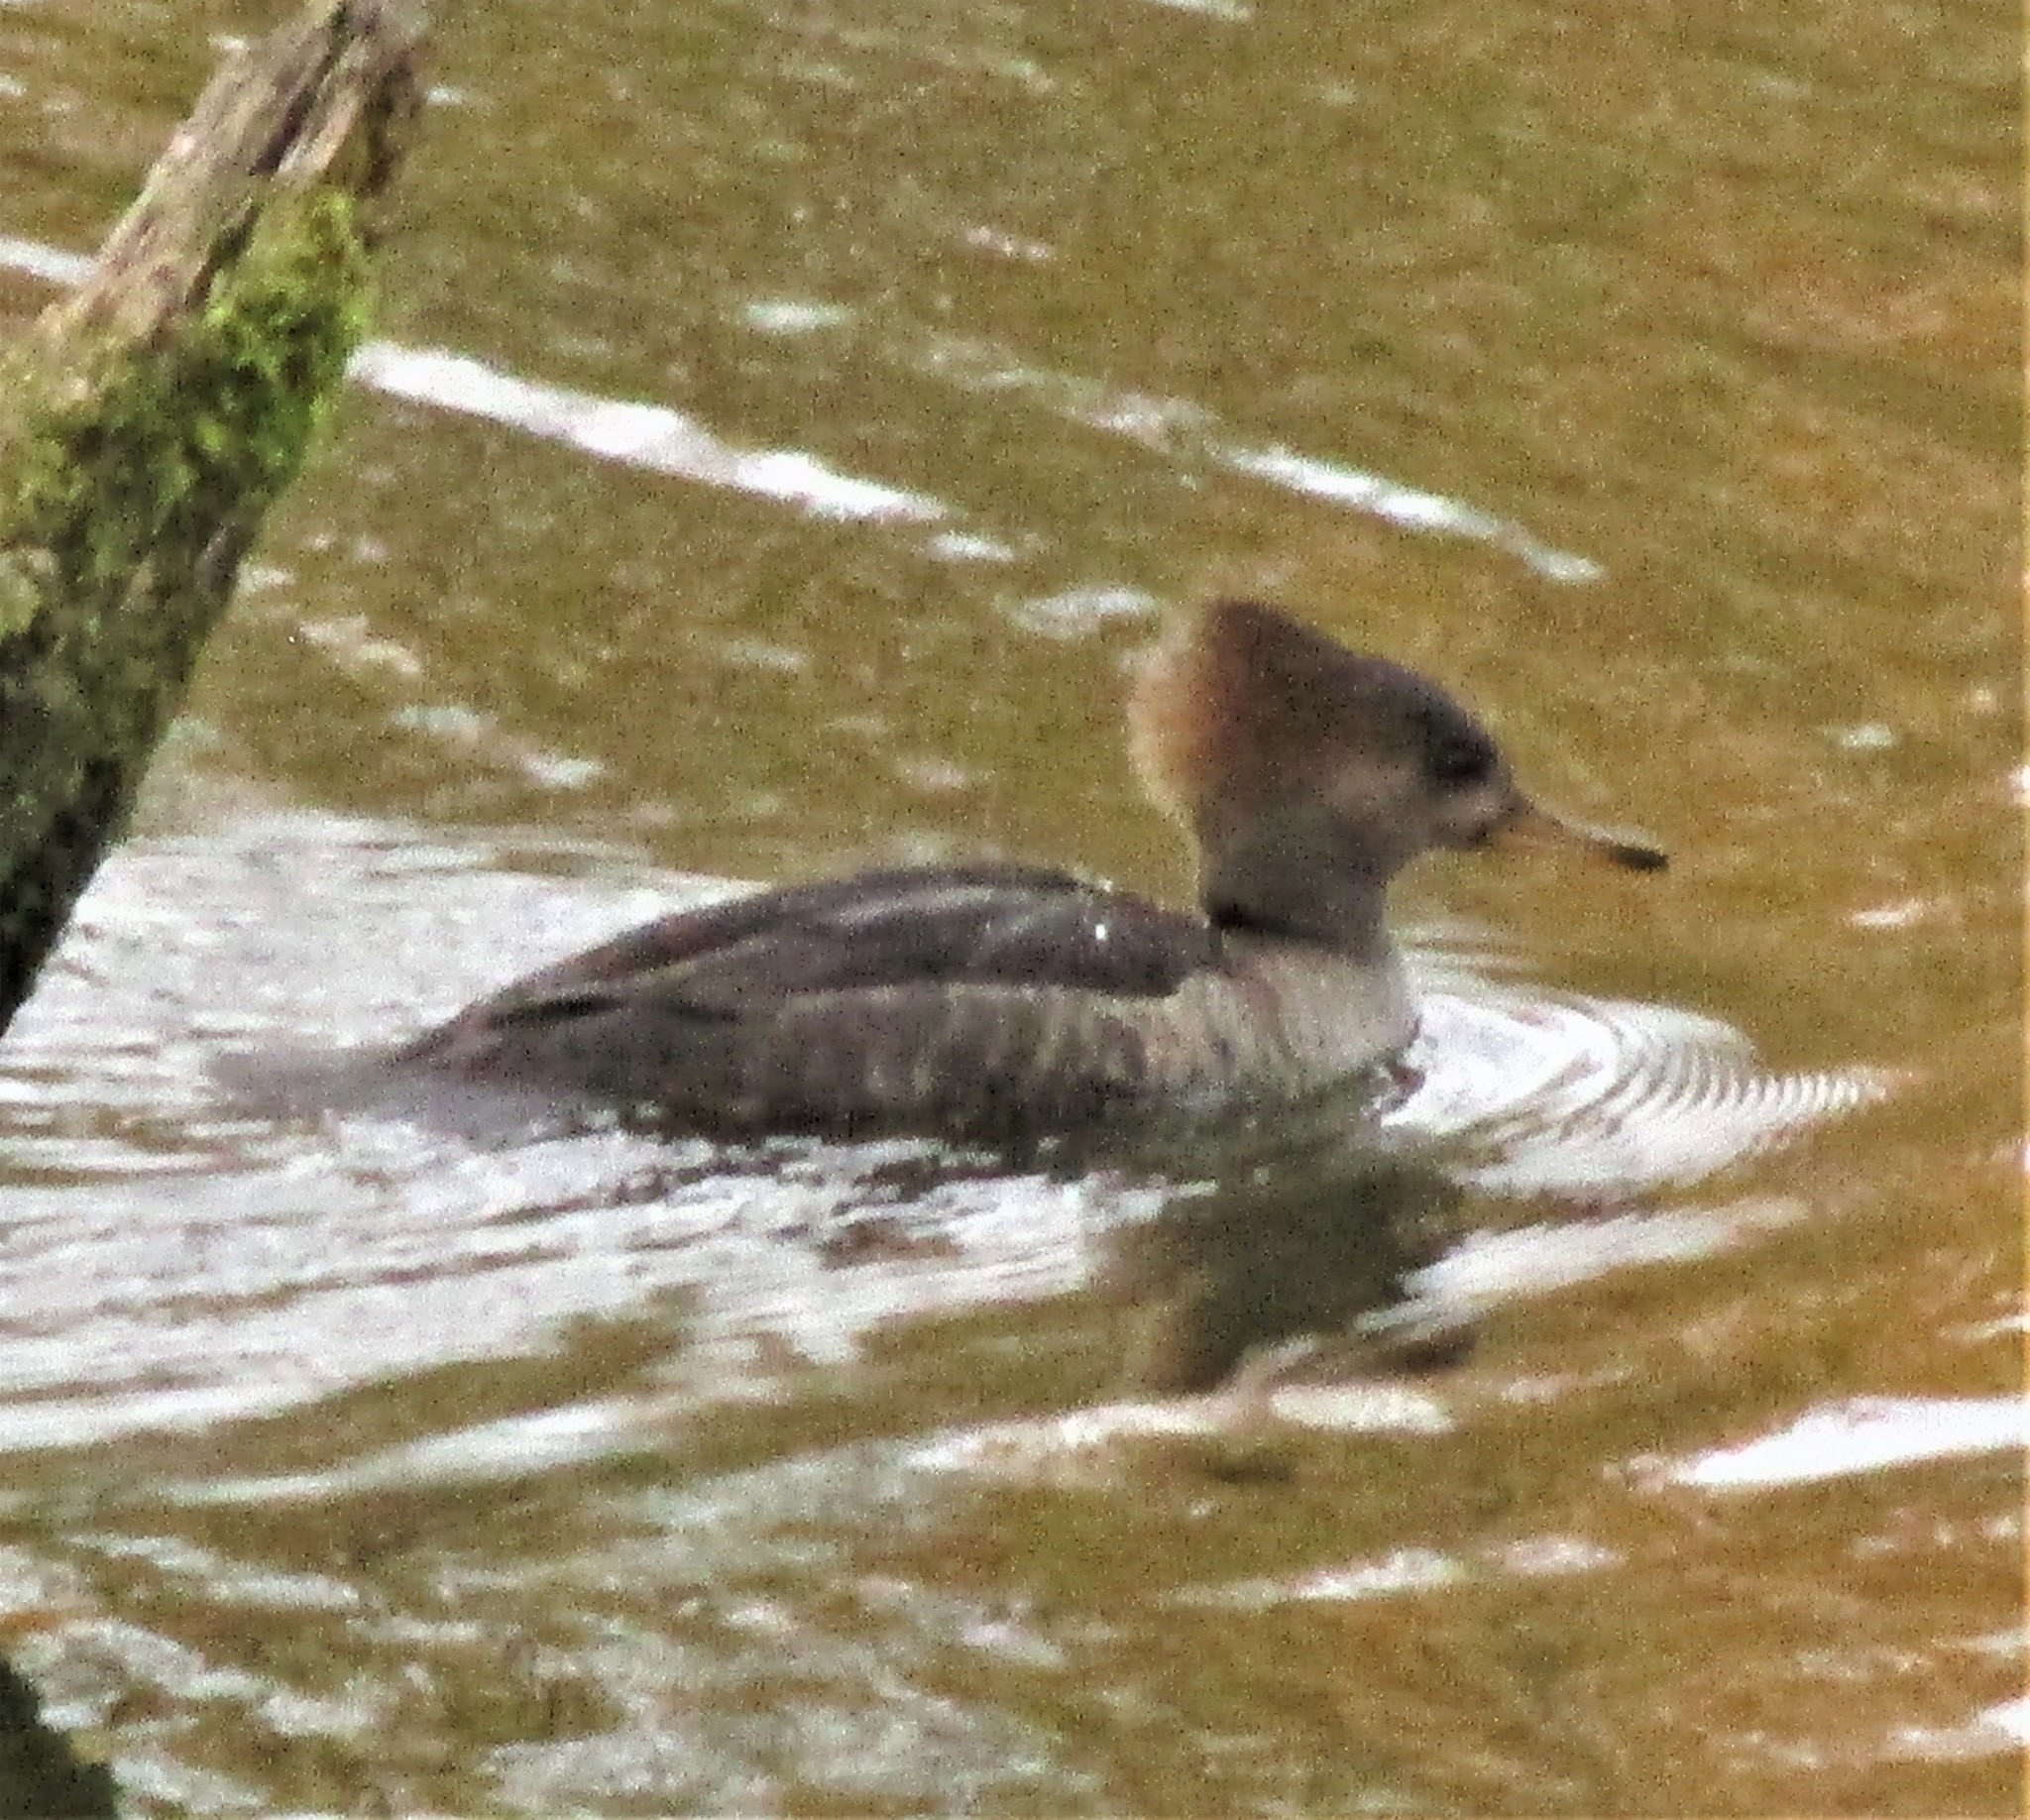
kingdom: Animalia
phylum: Chordata
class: Aves
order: Anseriformes
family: Anatidae
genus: Lophodytes
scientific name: Lophodytes cucullatus
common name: Hooded merganser
